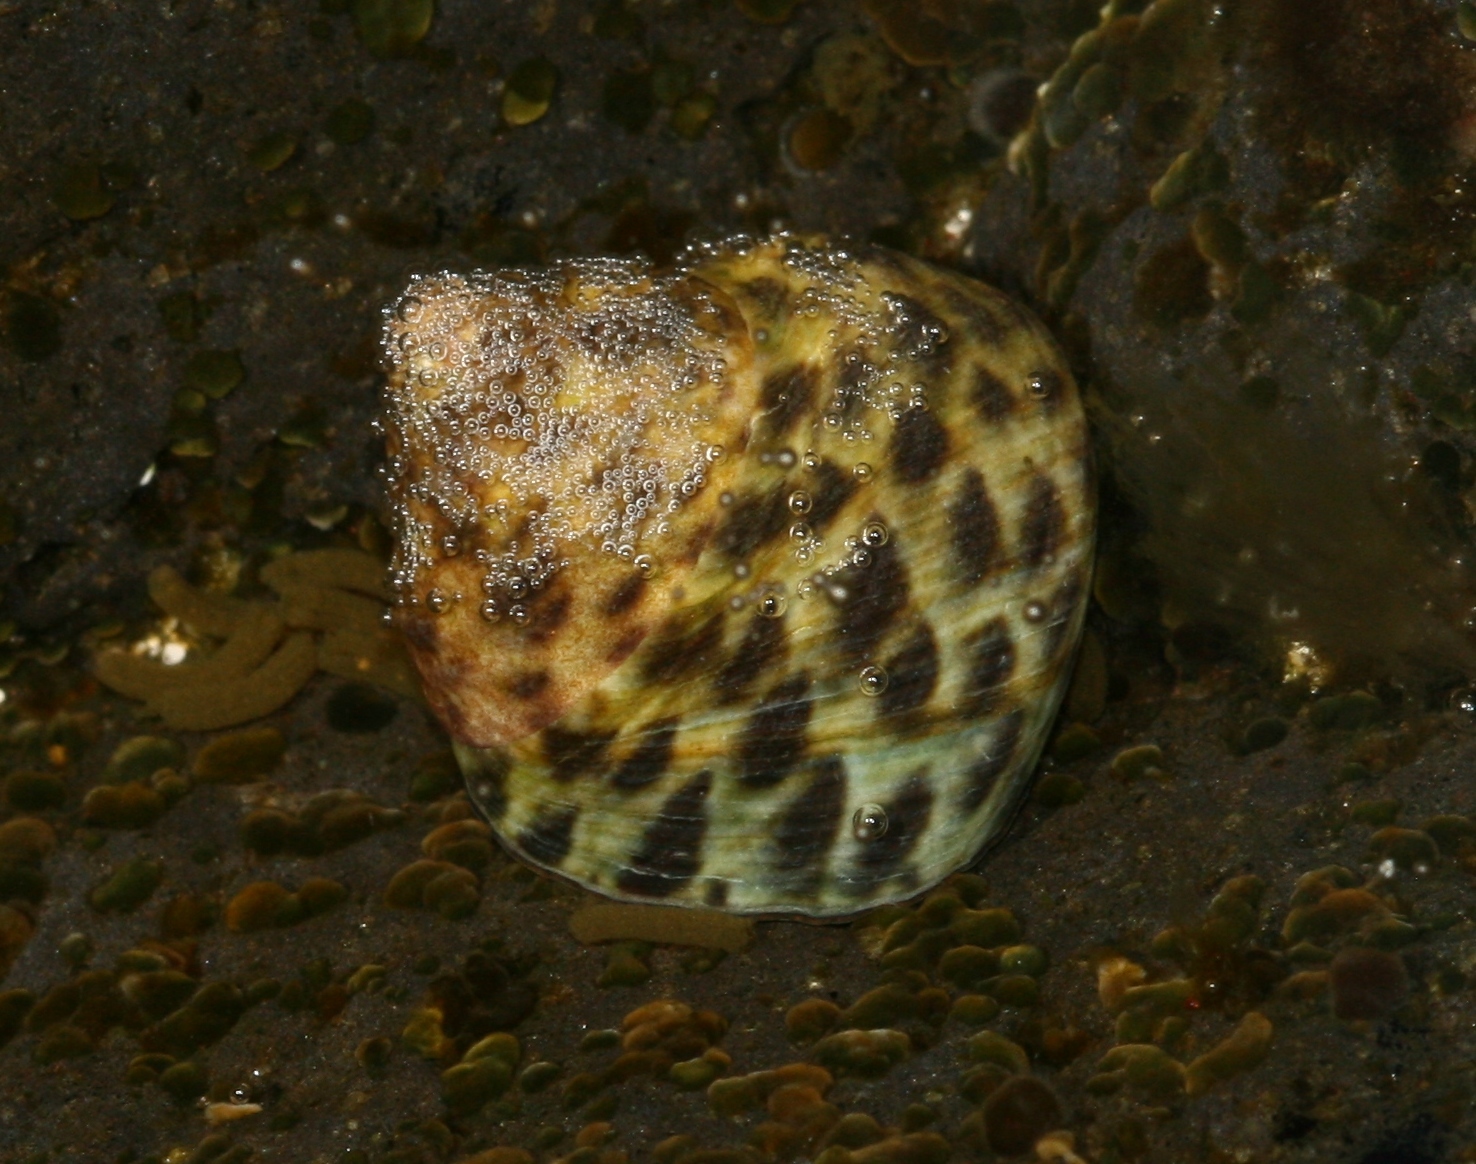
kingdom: Animalia
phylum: Mollusca
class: Gastropoda
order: Trochida
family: Trochidae
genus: Phorcus
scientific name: Phorcus sauciatus
